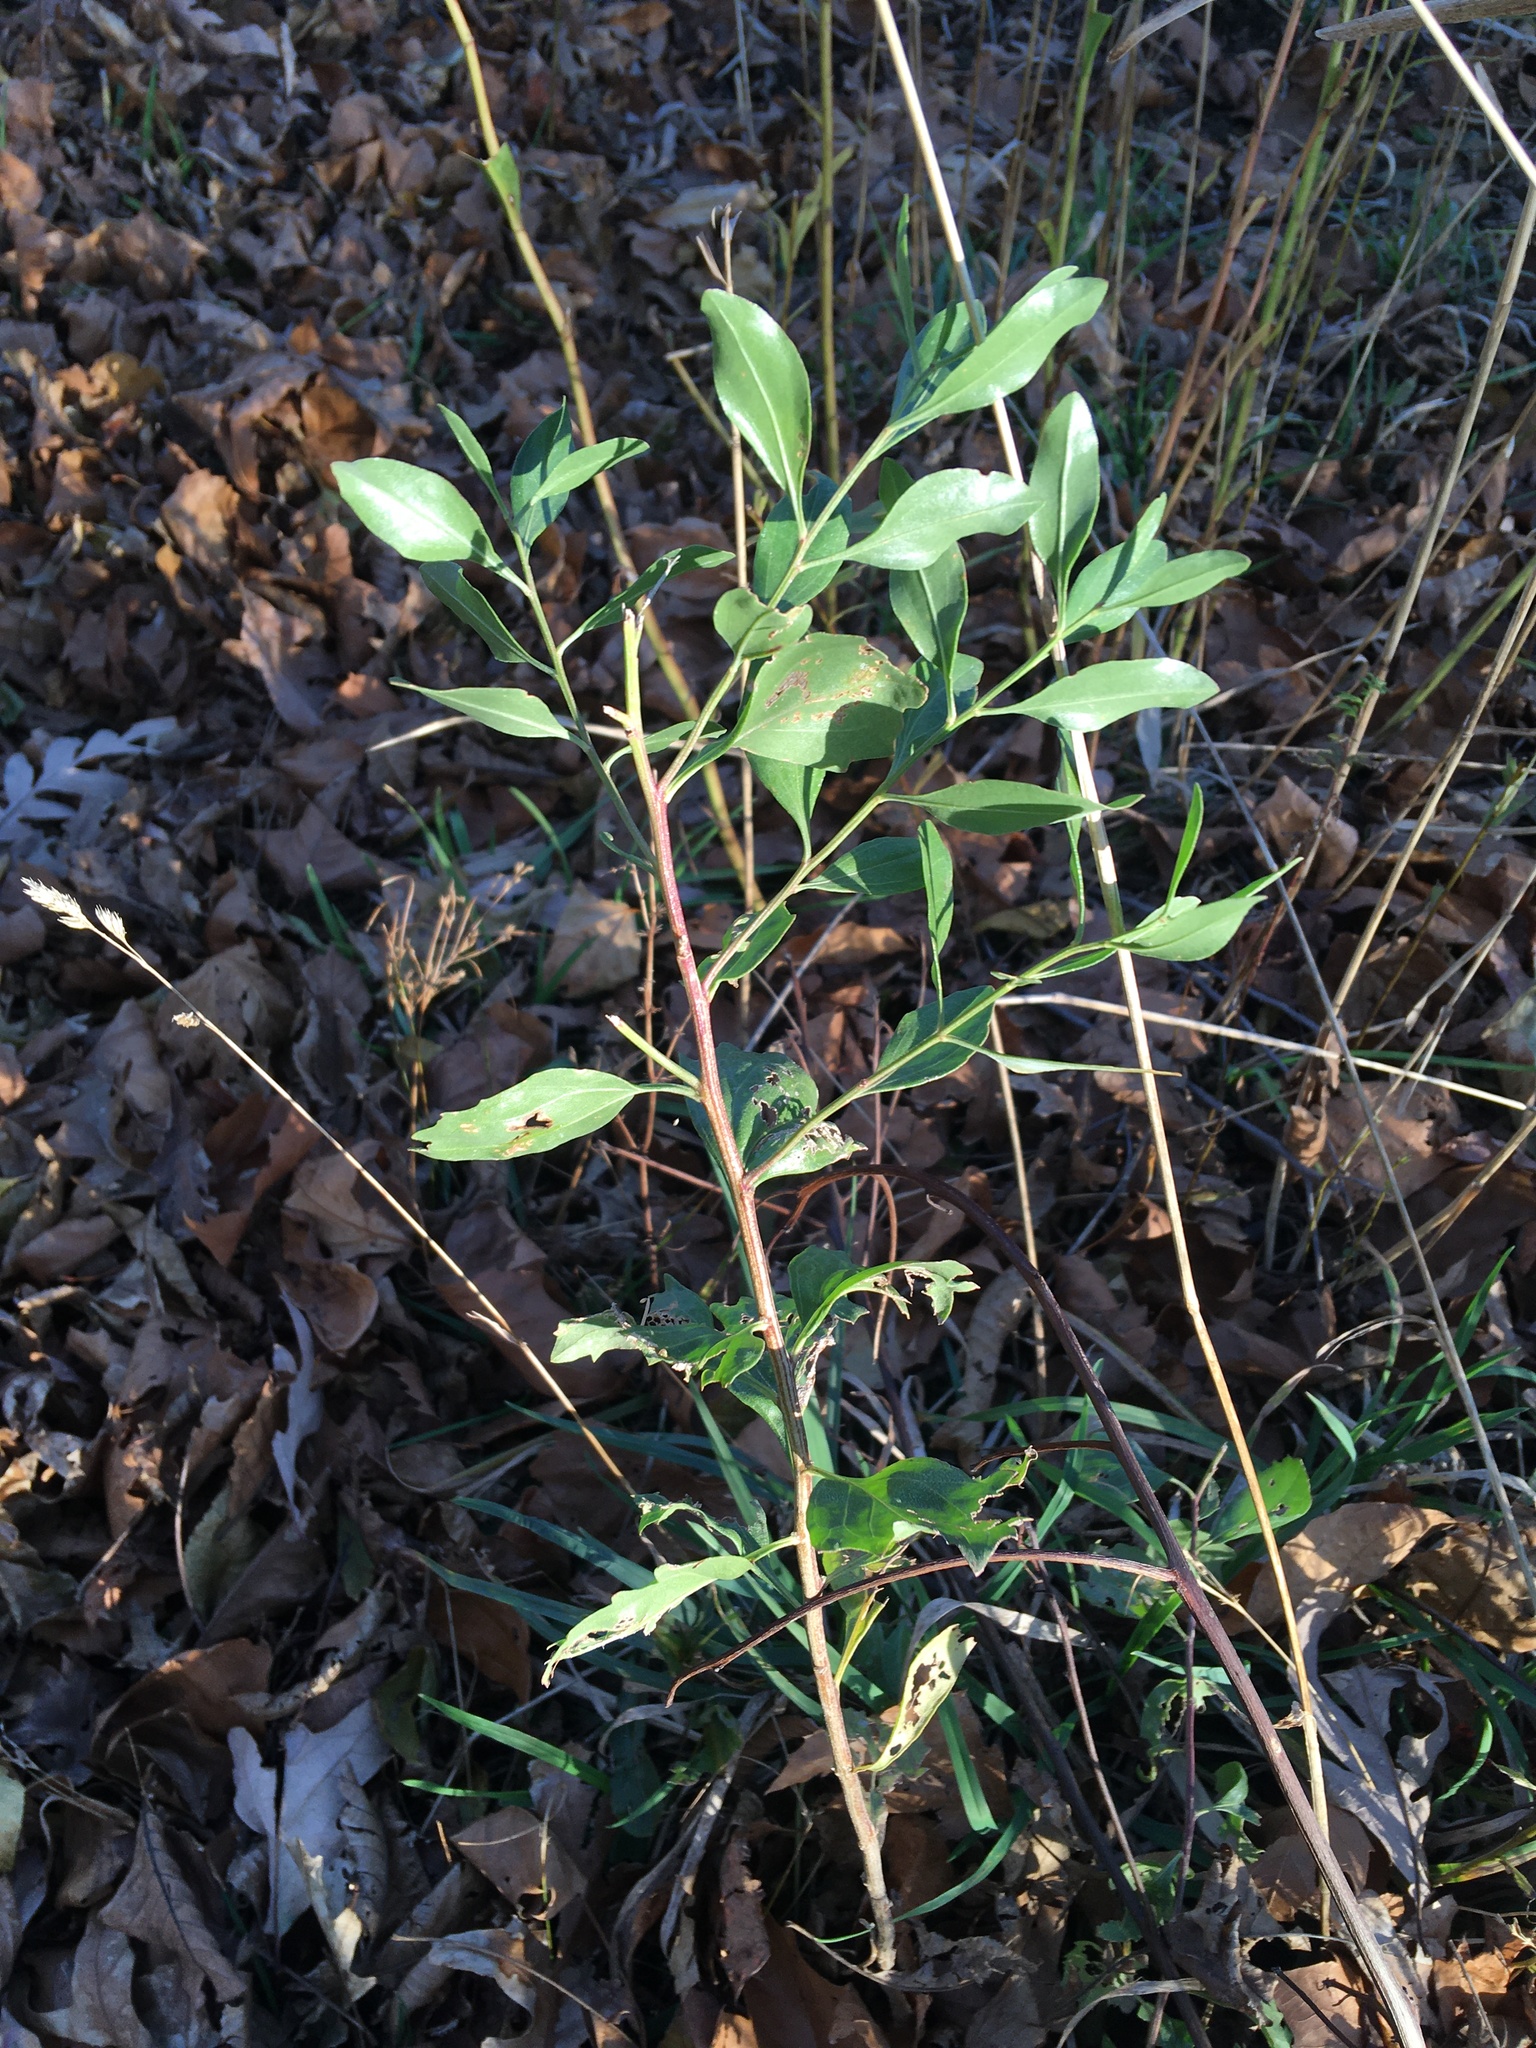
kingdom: Plantae
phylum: Tracheophyta
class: Magnoliopsida
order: Asterales
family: Asteraceae
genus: Baccharis
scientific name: Baccharis halimifolia
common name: Eastern baccharis
